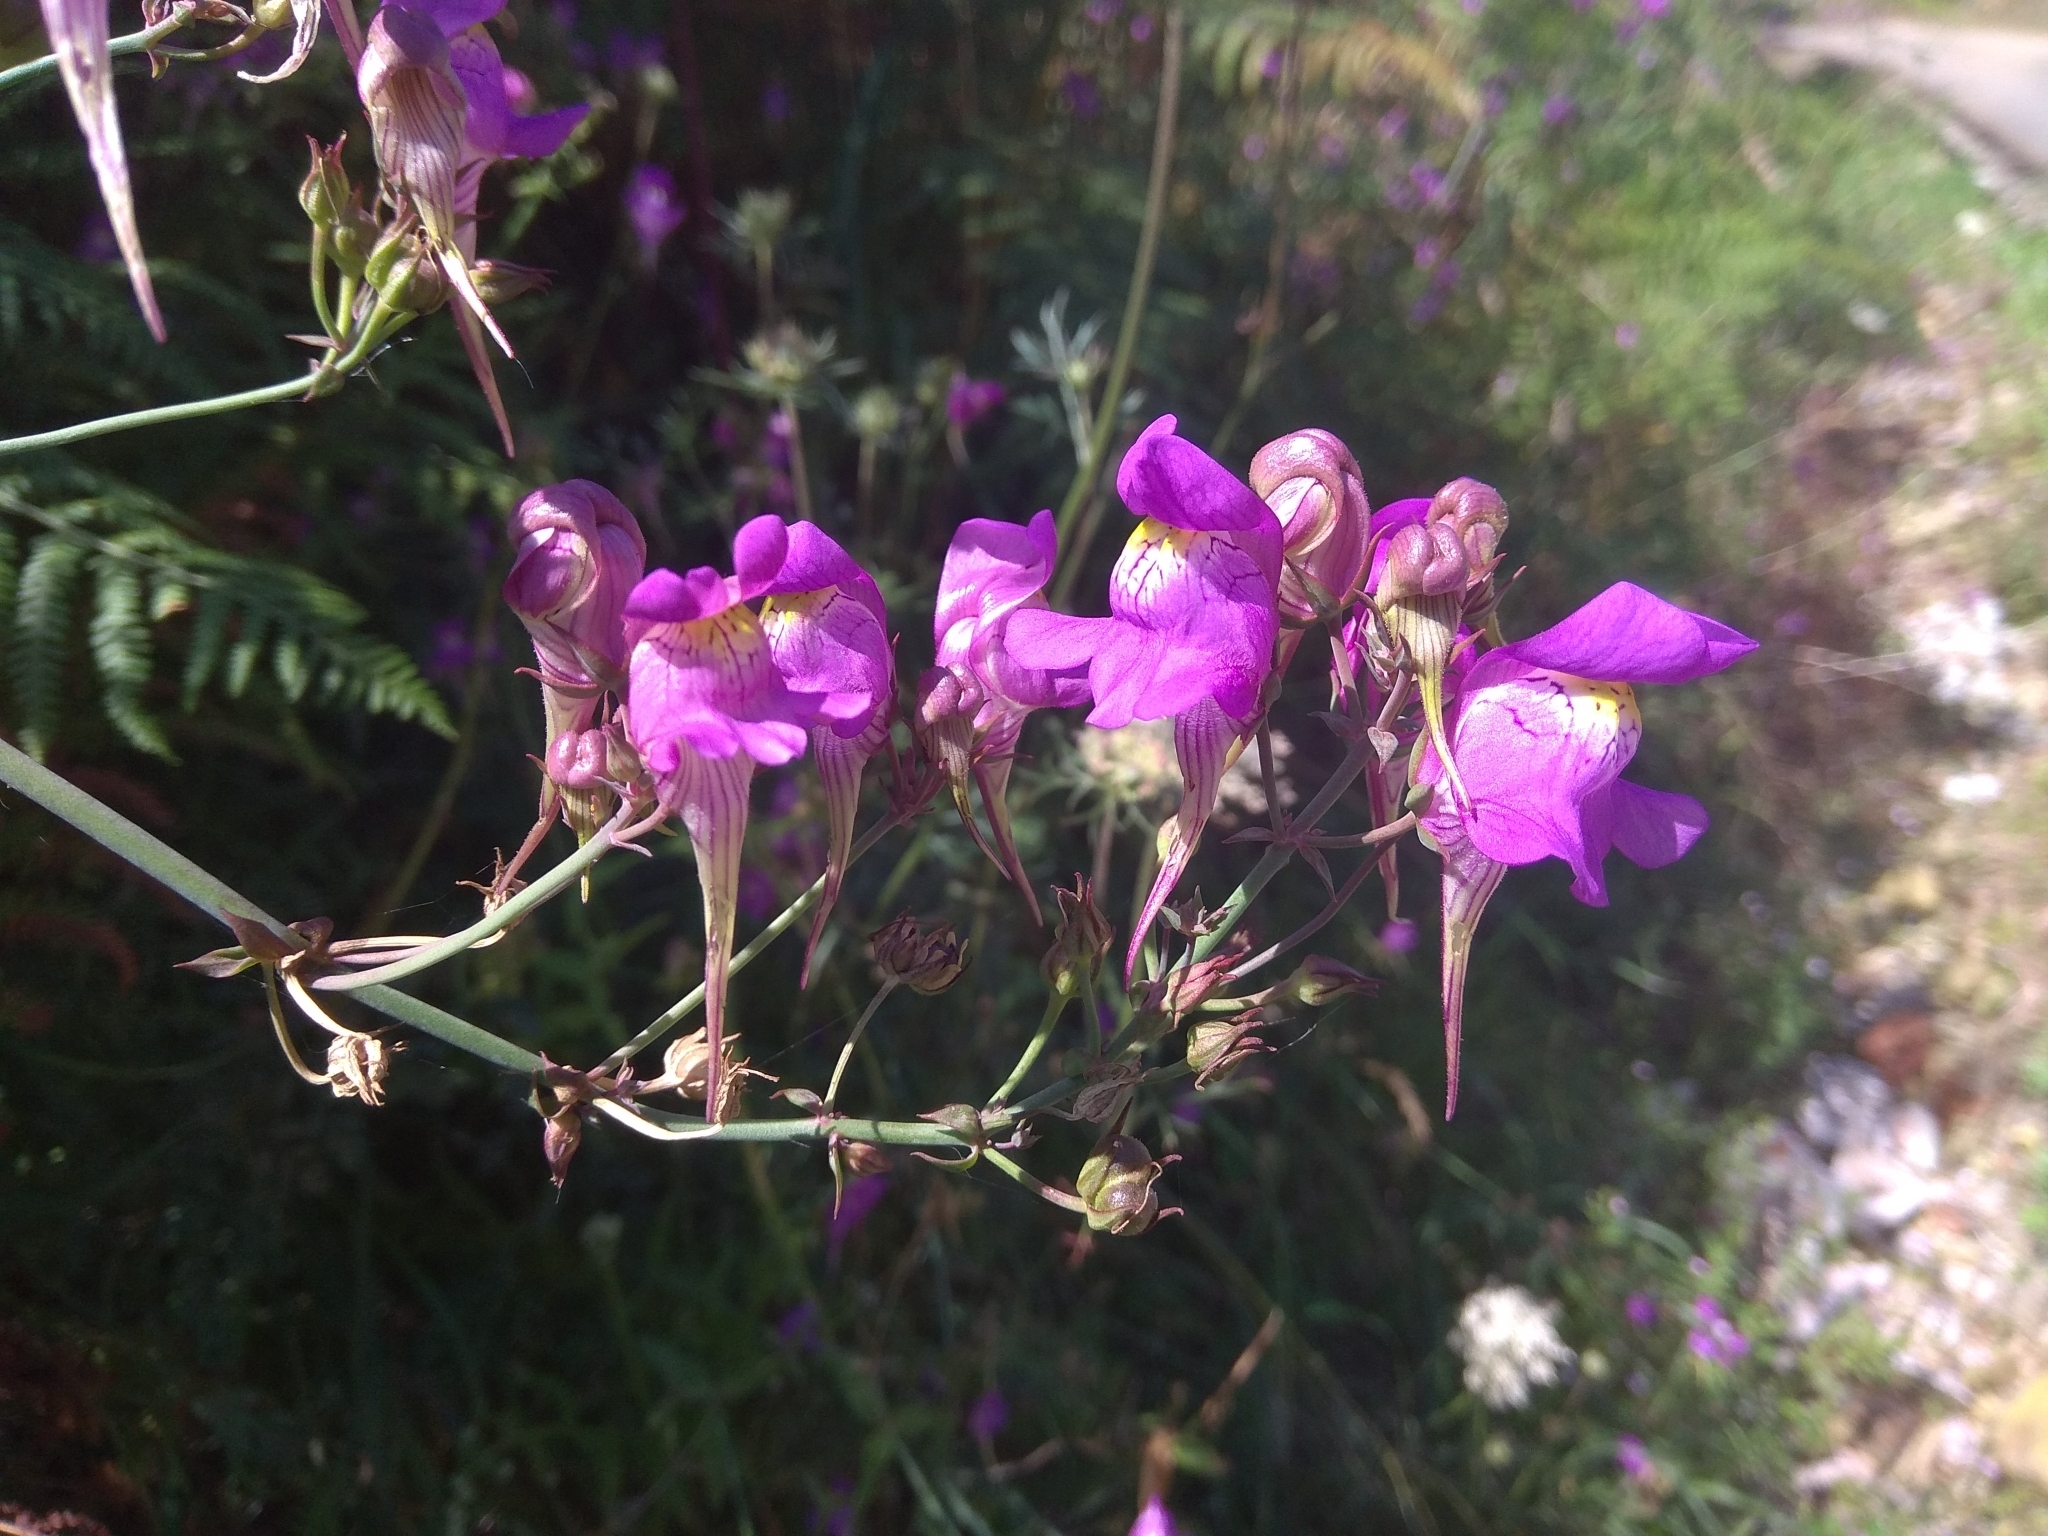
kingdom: Plantae
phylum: Tracheophyta
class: Magnoliopsida
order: Lamiales
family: Plantaginaceae
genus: Linaria
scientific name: Linaria triornithophora
